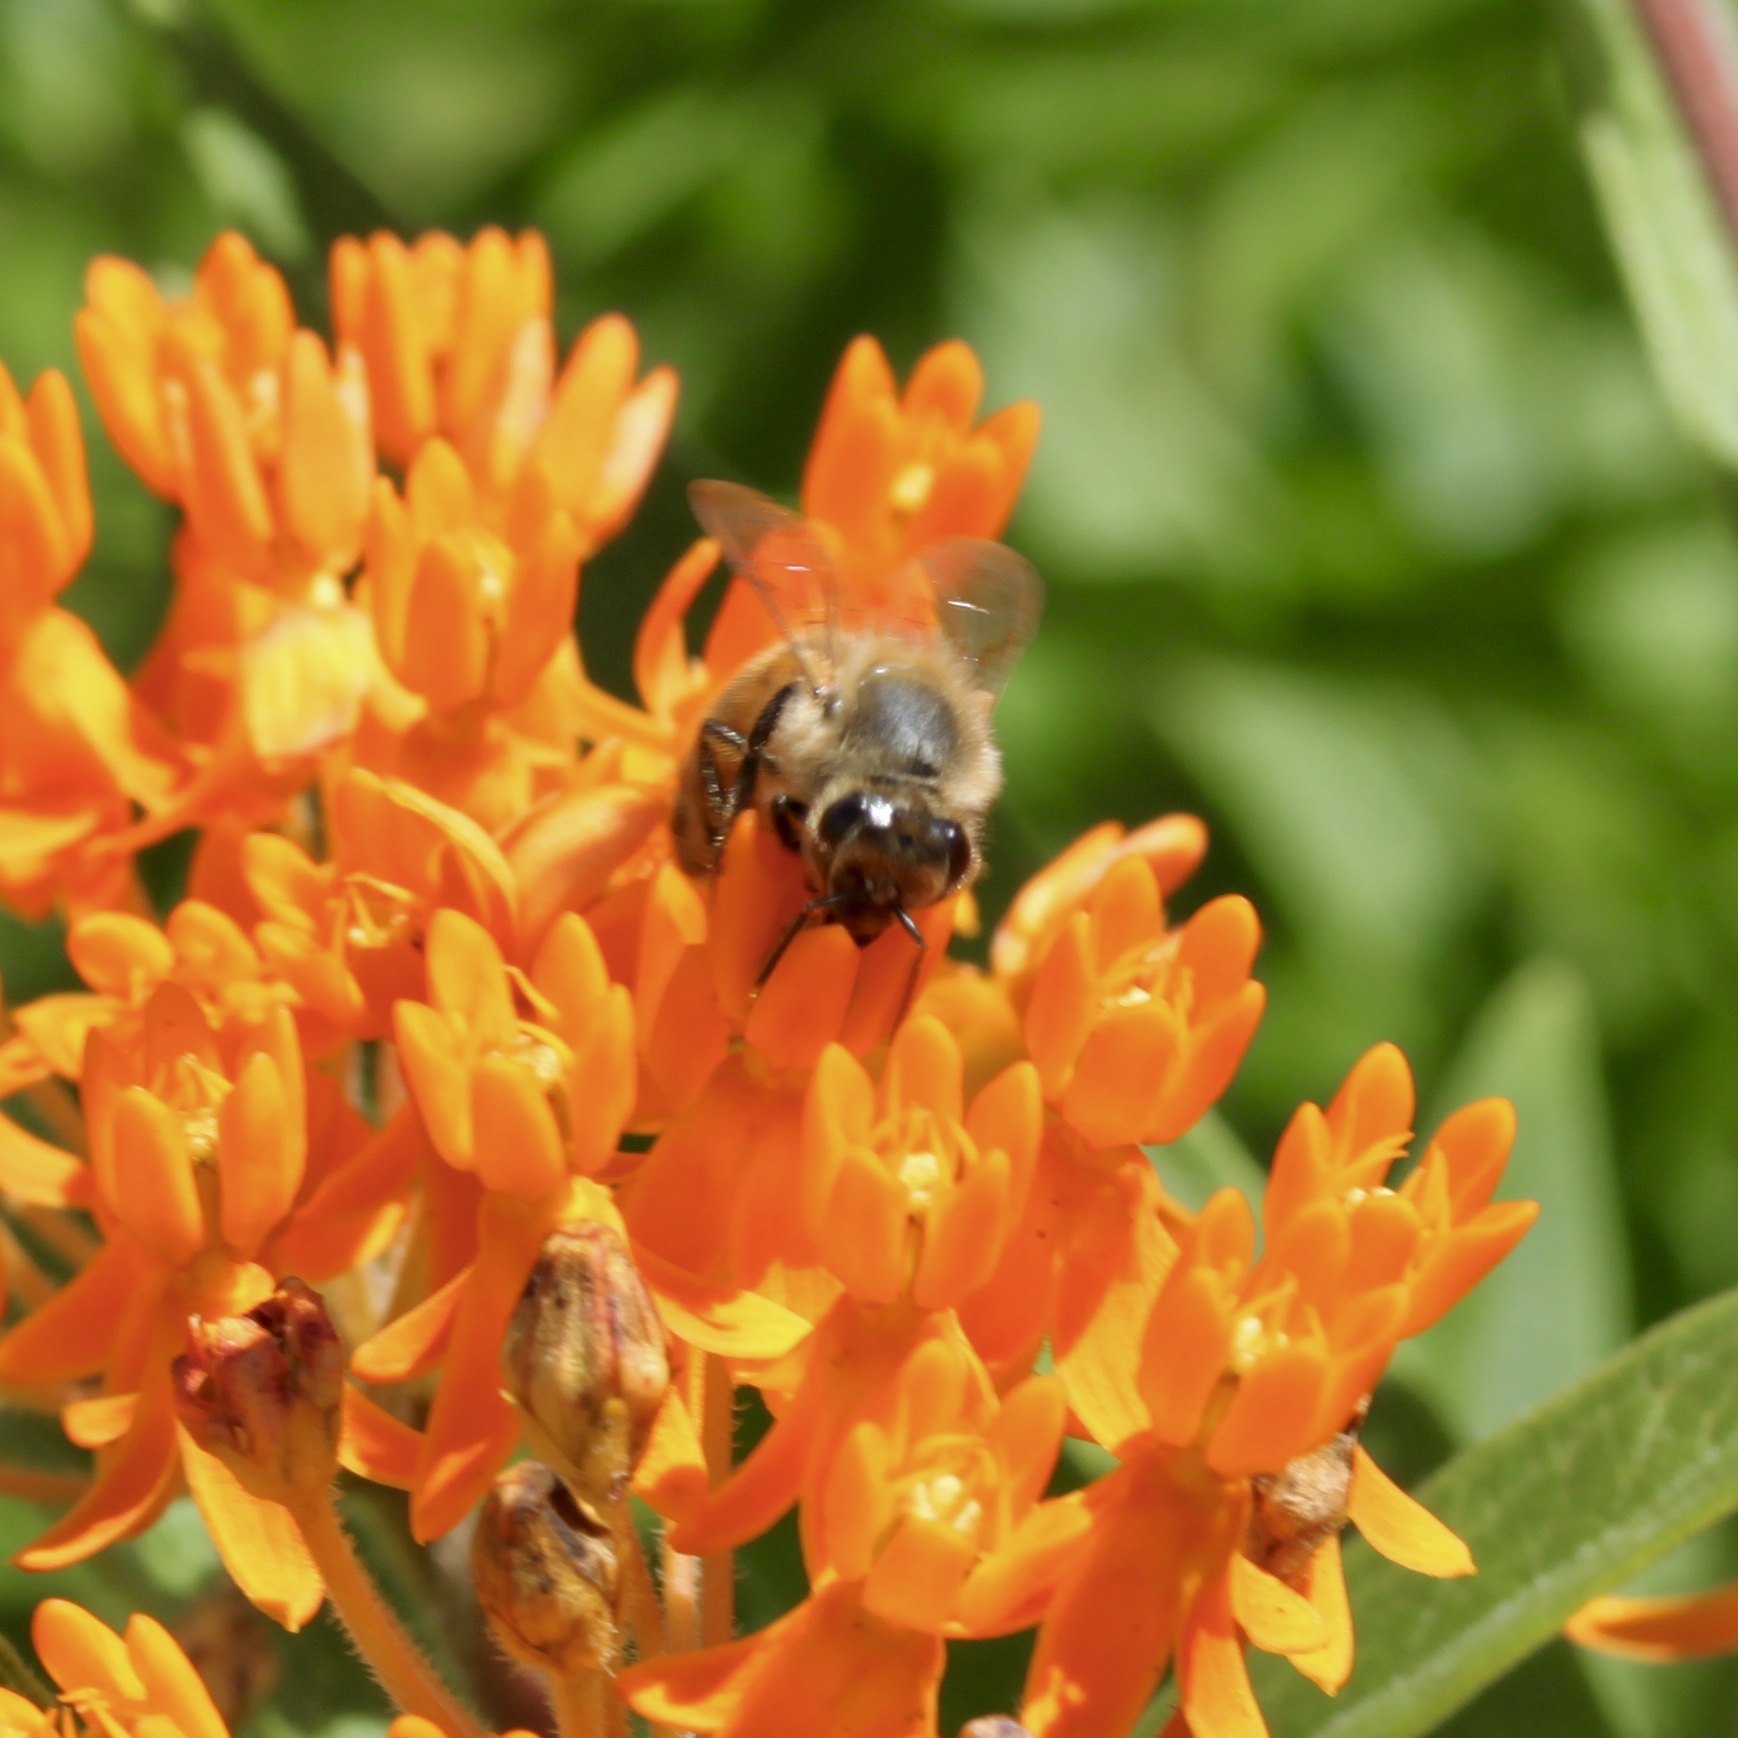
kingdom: Animalia
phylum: Arthropoda
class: Insecta
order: Hymenoptera
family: Apidae
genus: Apis
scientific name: Apis mellifera
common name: Honey bee
